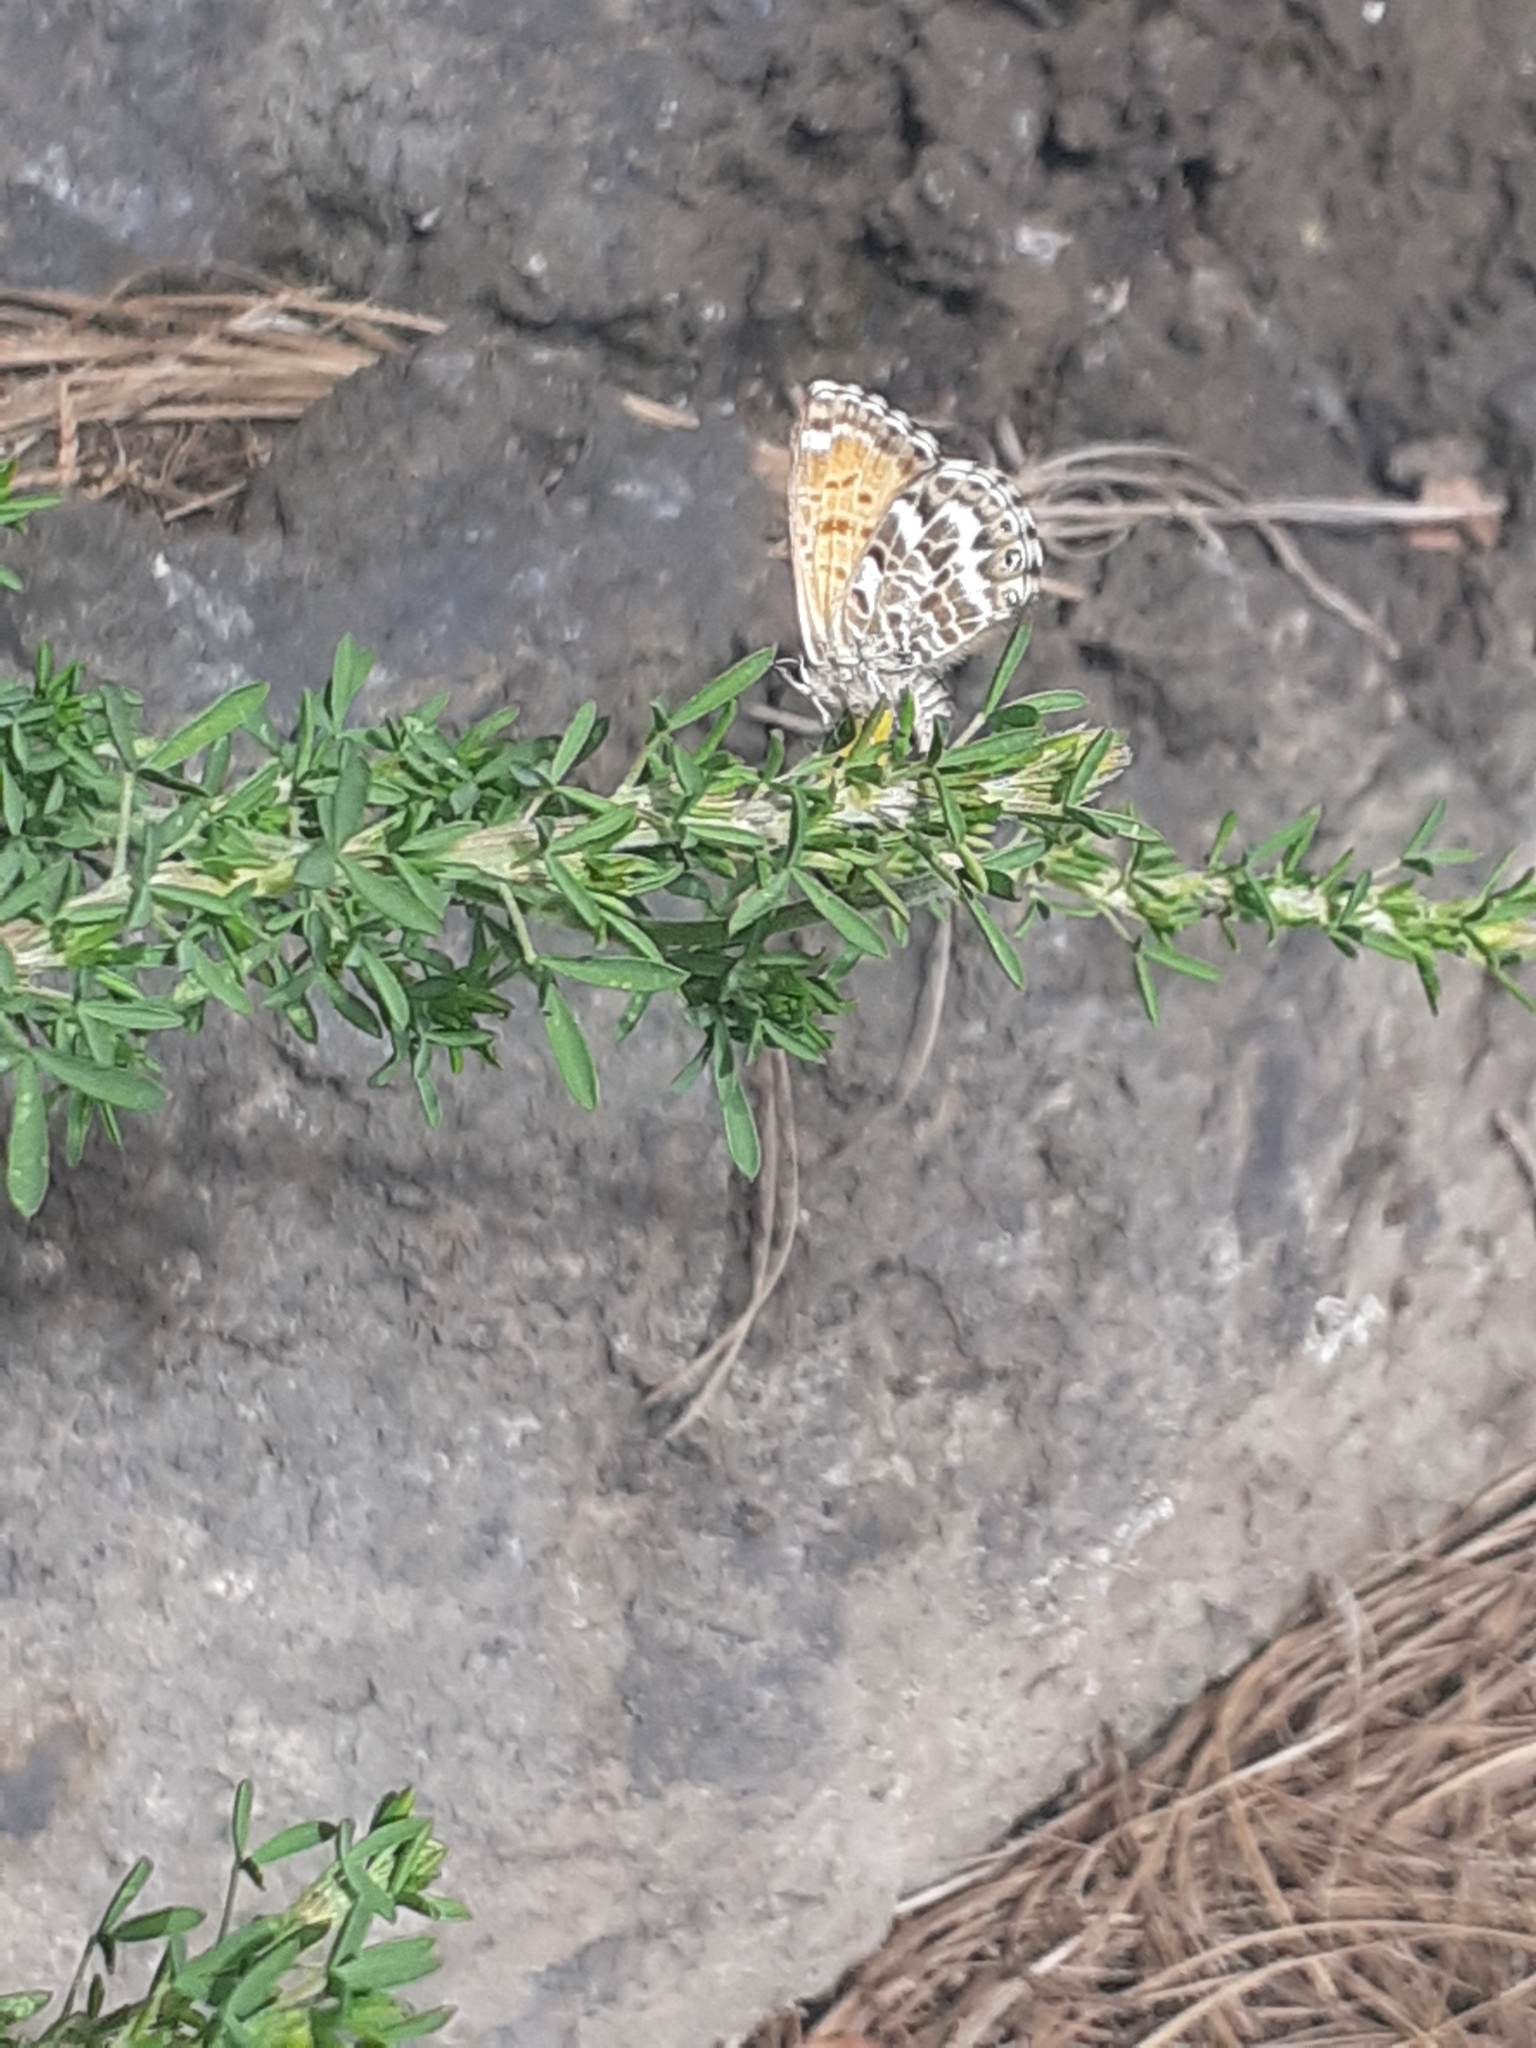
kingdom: Animalia
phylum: Arthropoda
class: Insecta
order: Lepidoptera
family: Lycaenidae
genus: Cyclyrius
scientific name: Cyclyrius webbianus
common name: Canary blue
